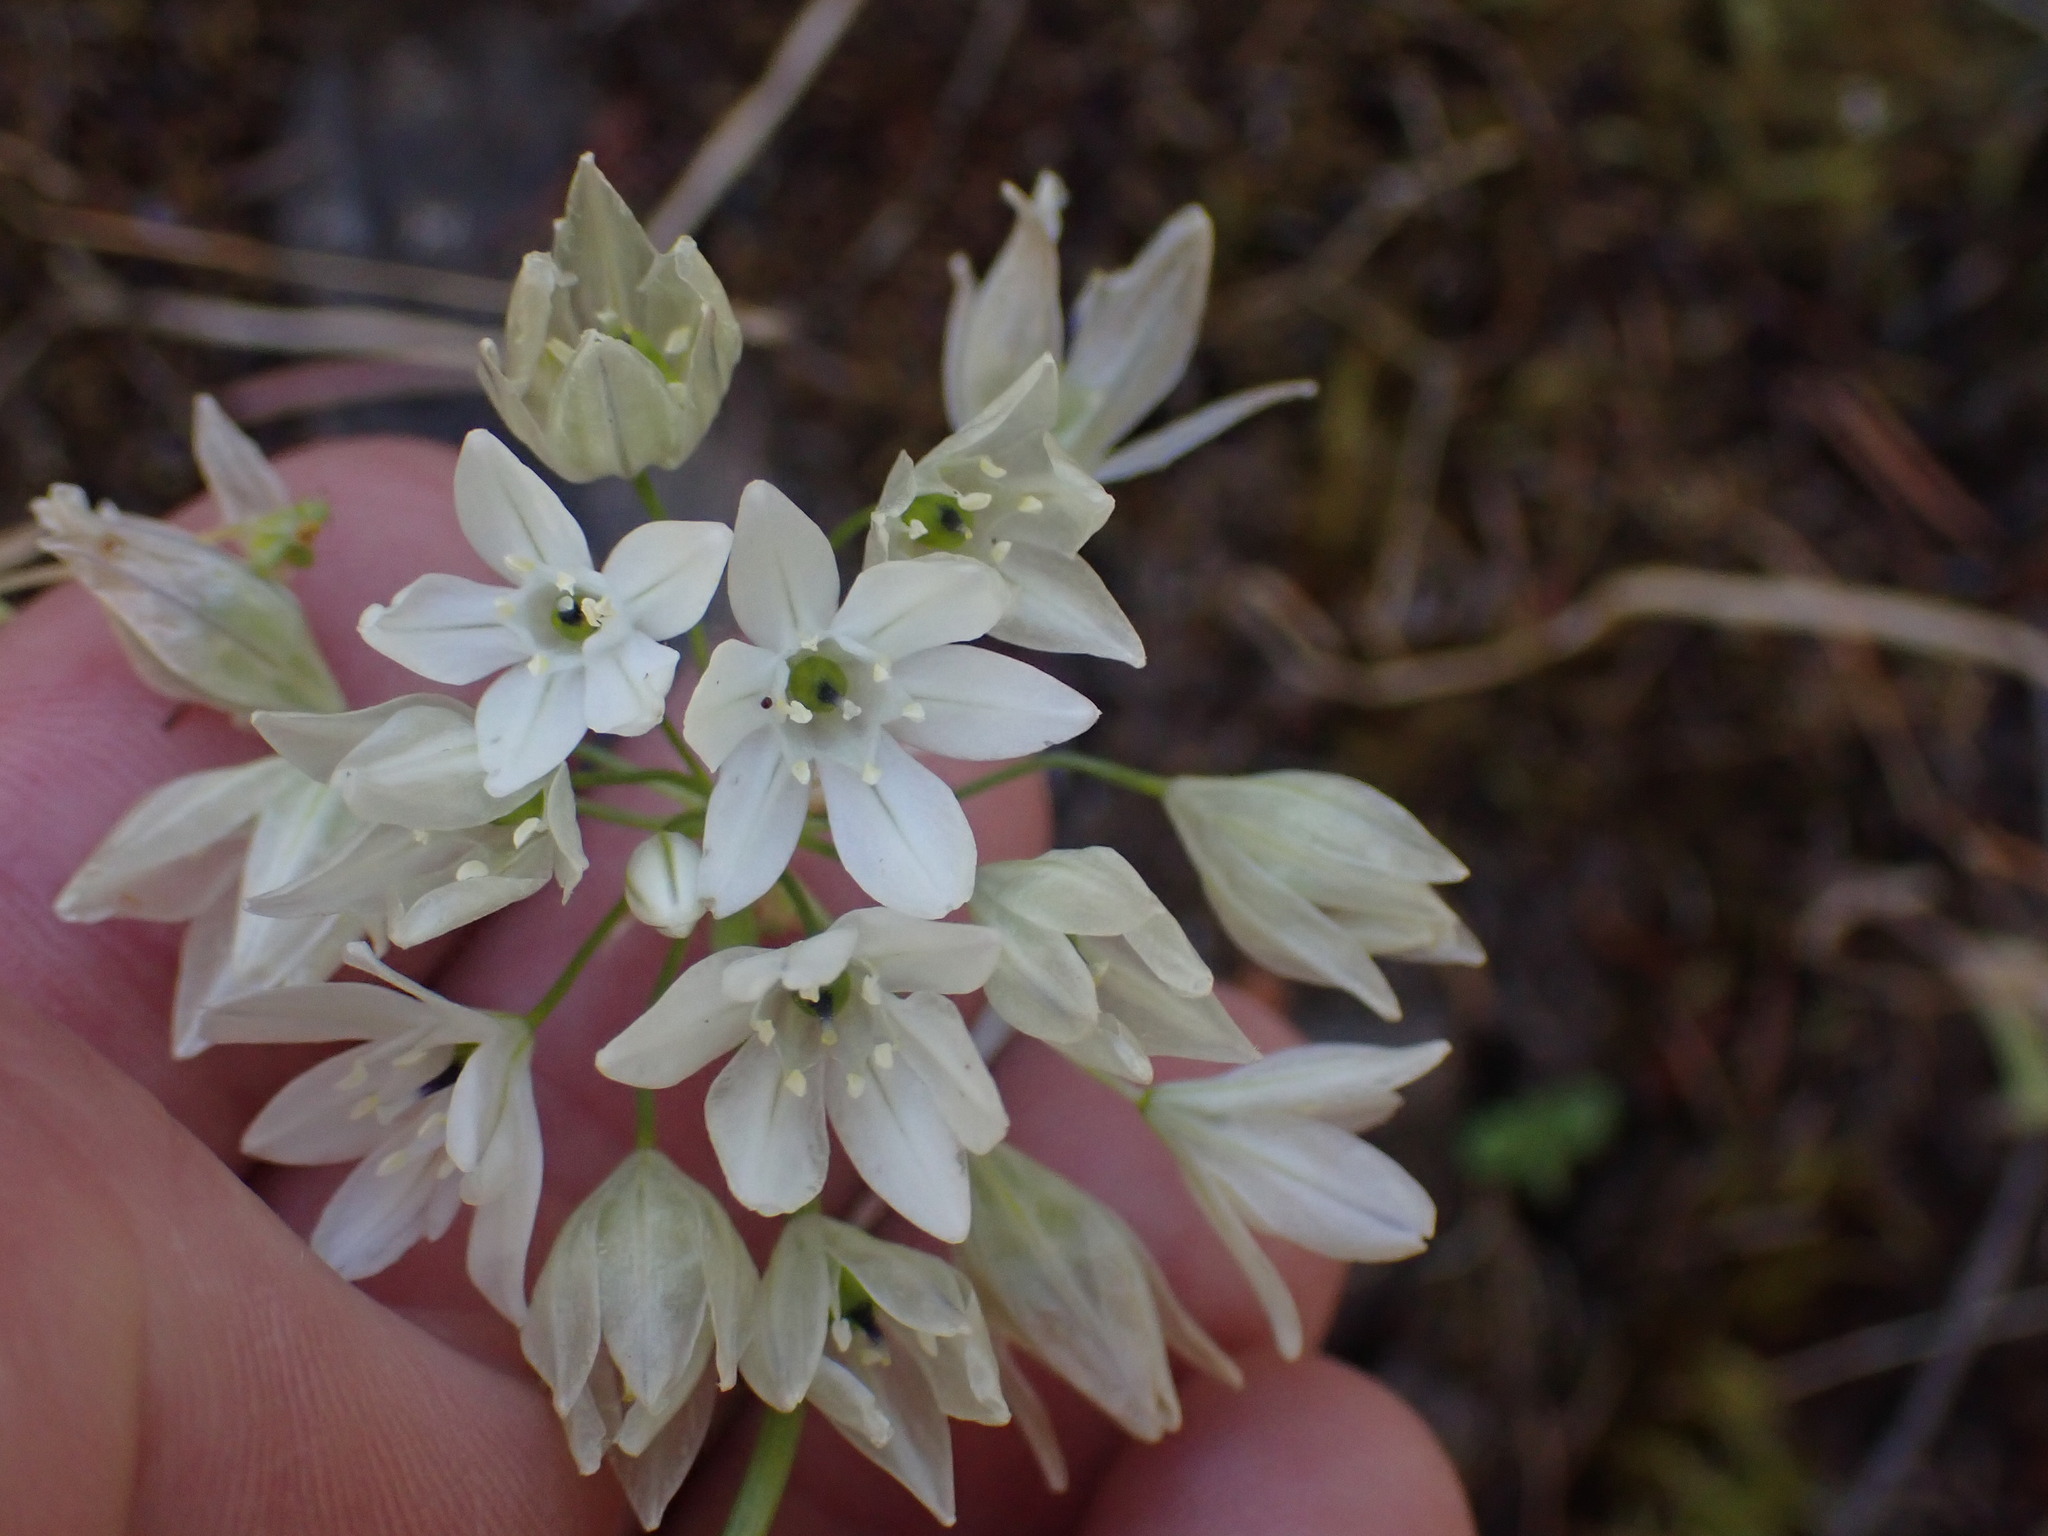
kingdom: Plantae
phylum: Tracheophyta
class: Liliopsida
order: Asparagales
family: Asparagaceae
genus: Triteleia
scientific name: Triteleia hyacinthina
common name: White brodiaea
